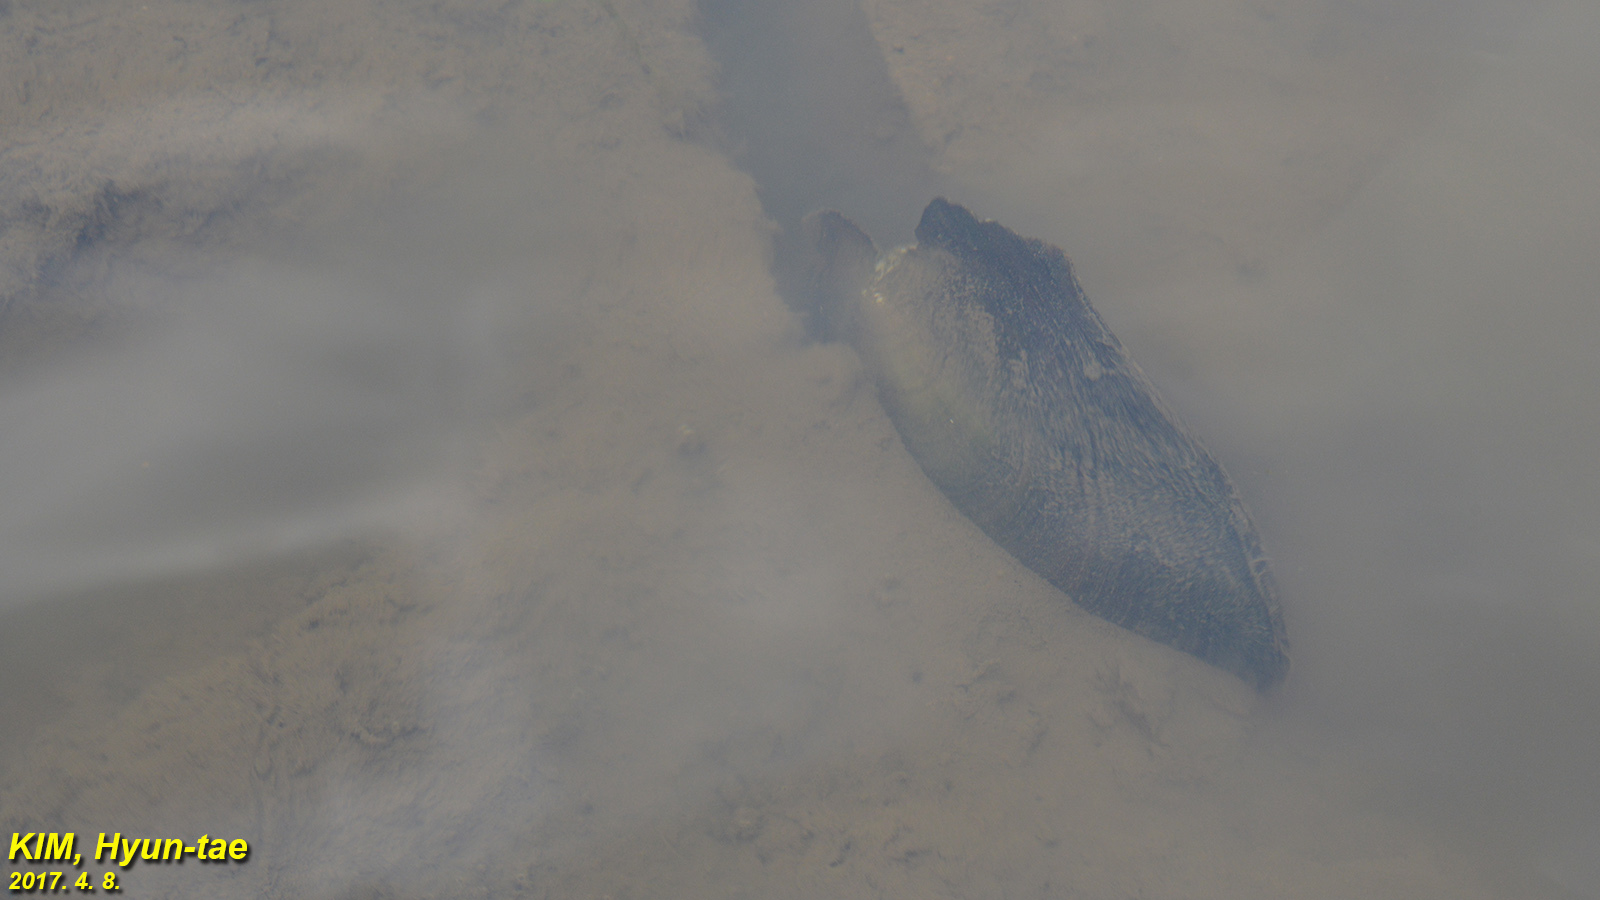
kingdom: Animalia
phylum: Mollusca
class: Bivalvia
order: Unionida
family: Unionidae
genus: Cristaria
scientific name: Cristaria plicata
